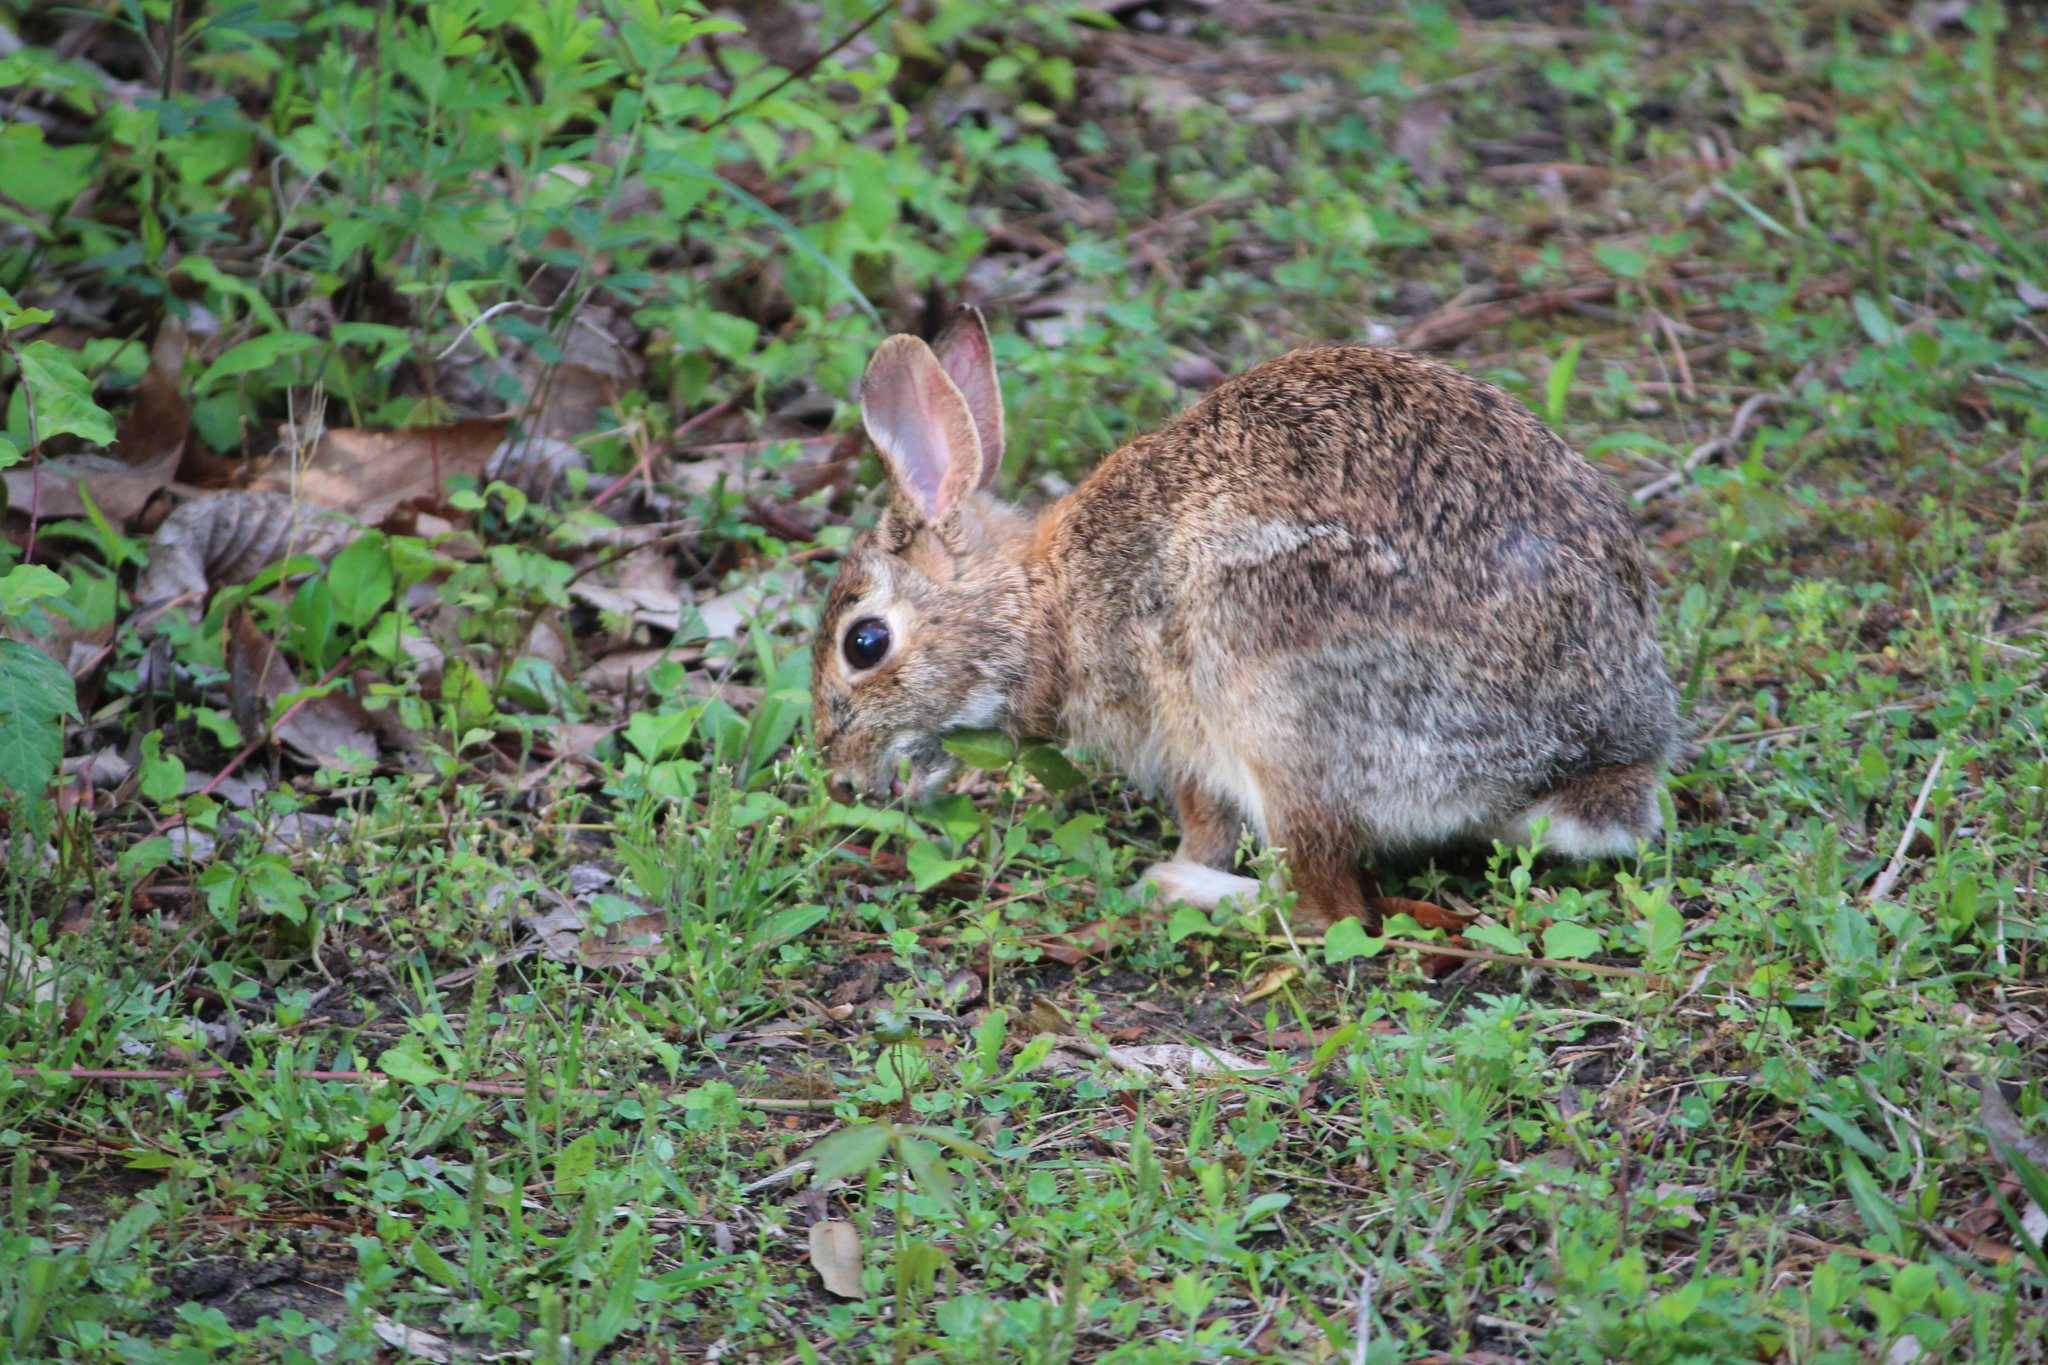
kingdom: Animalia
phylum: Chordata
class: Mammalia
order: Lagomorpha
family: Leporidae
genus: Sylvilagus
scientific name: Sylvilagus floridanus
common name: Eastern cottontail
